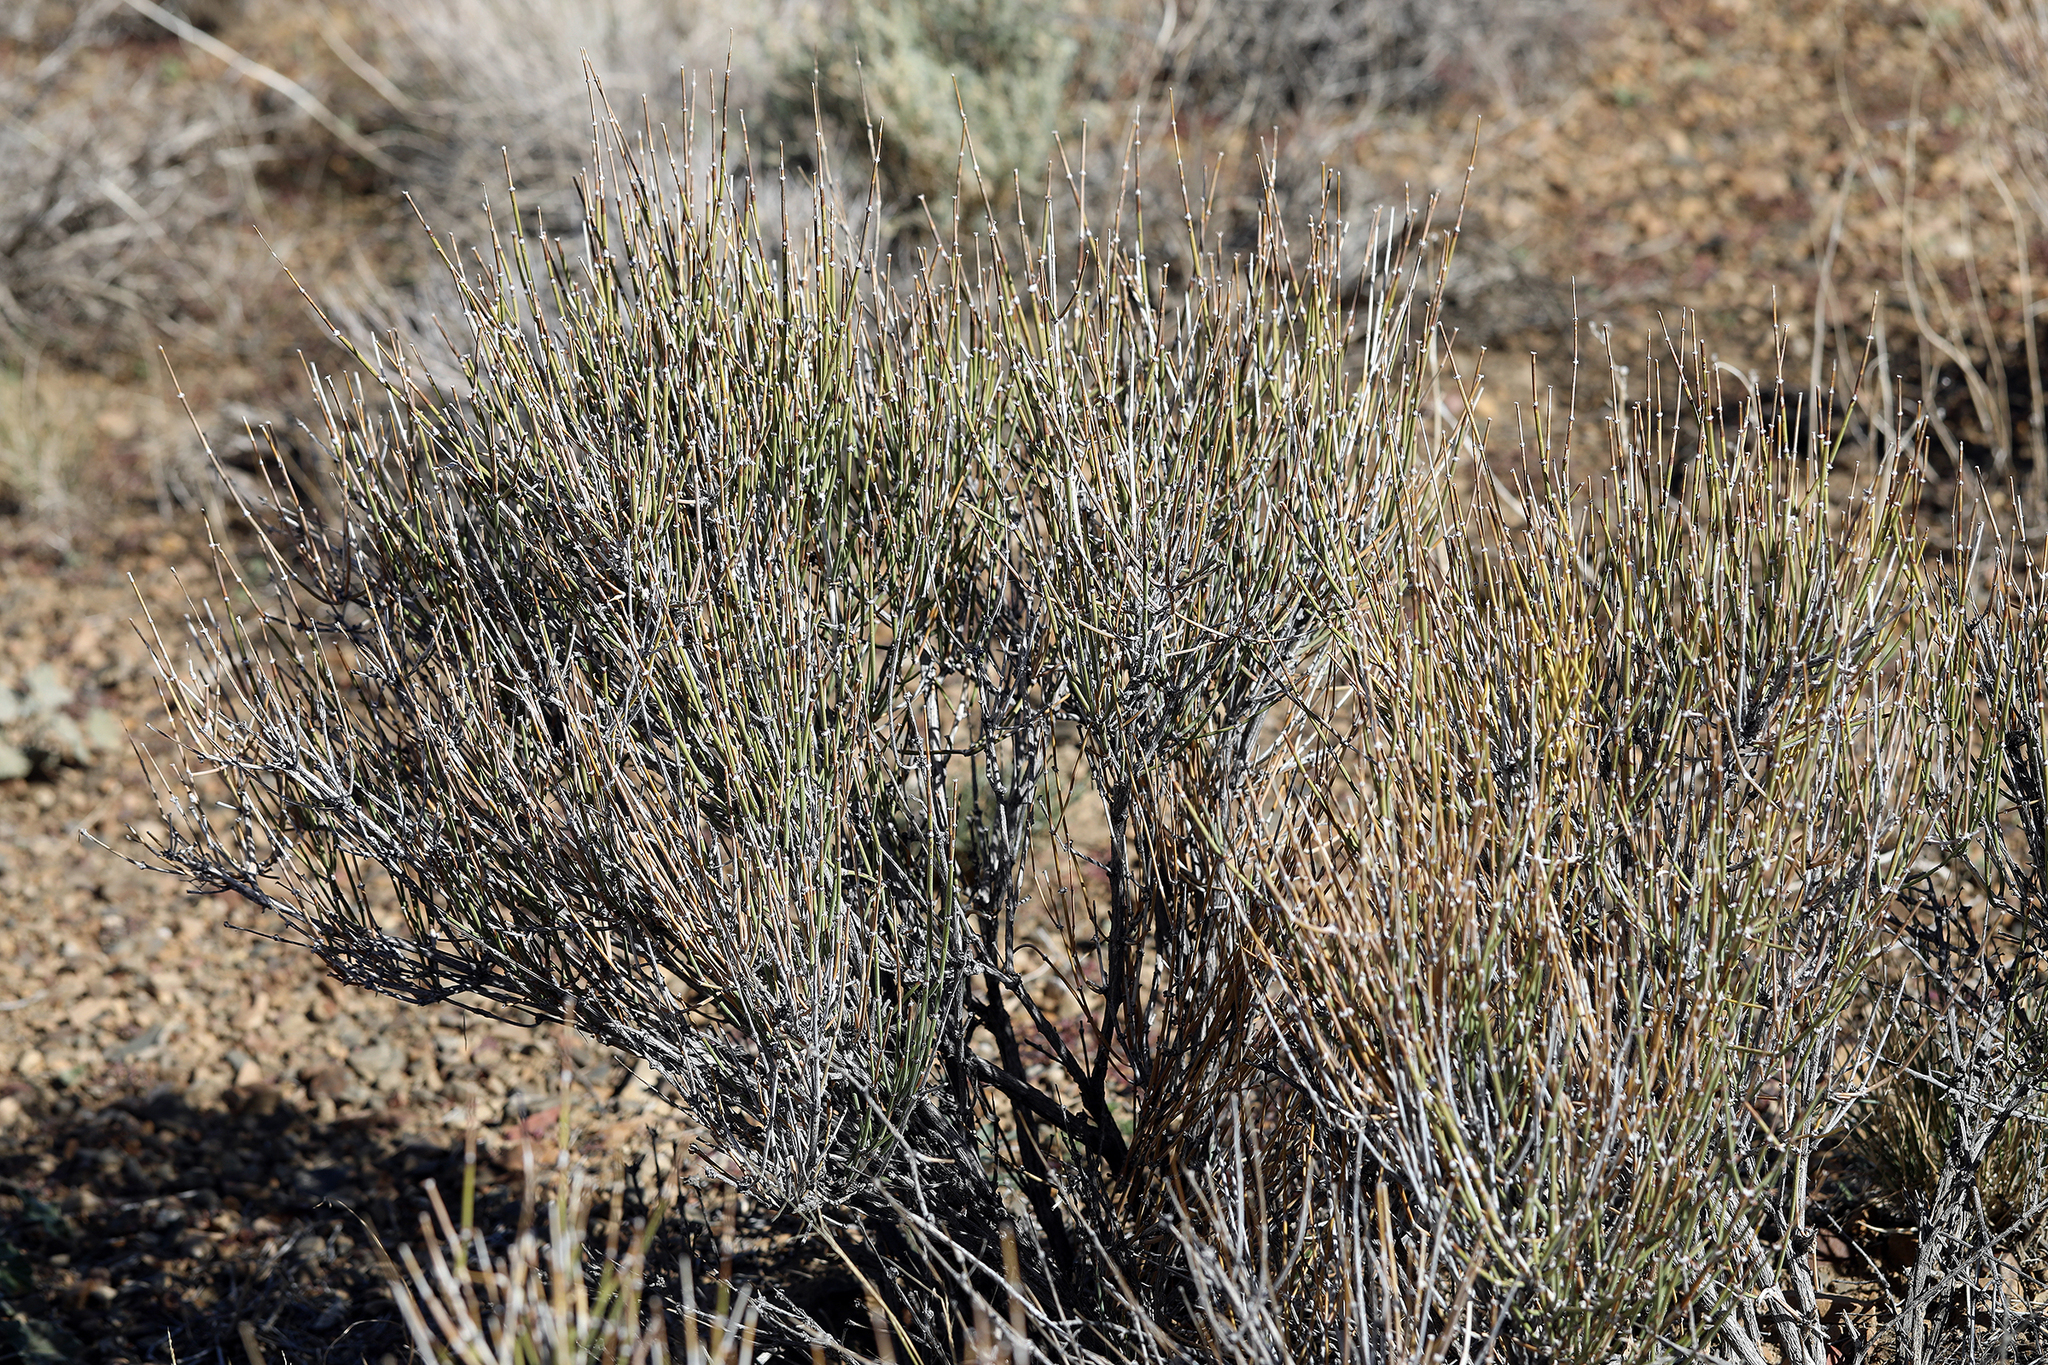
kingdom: Plantae
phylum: Tracheophyta
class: Gnetopsida
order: Ephedrales
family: Ephedraceae
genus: Ephedra
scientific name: Ephedra nevadensis
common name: Gray ephedra
